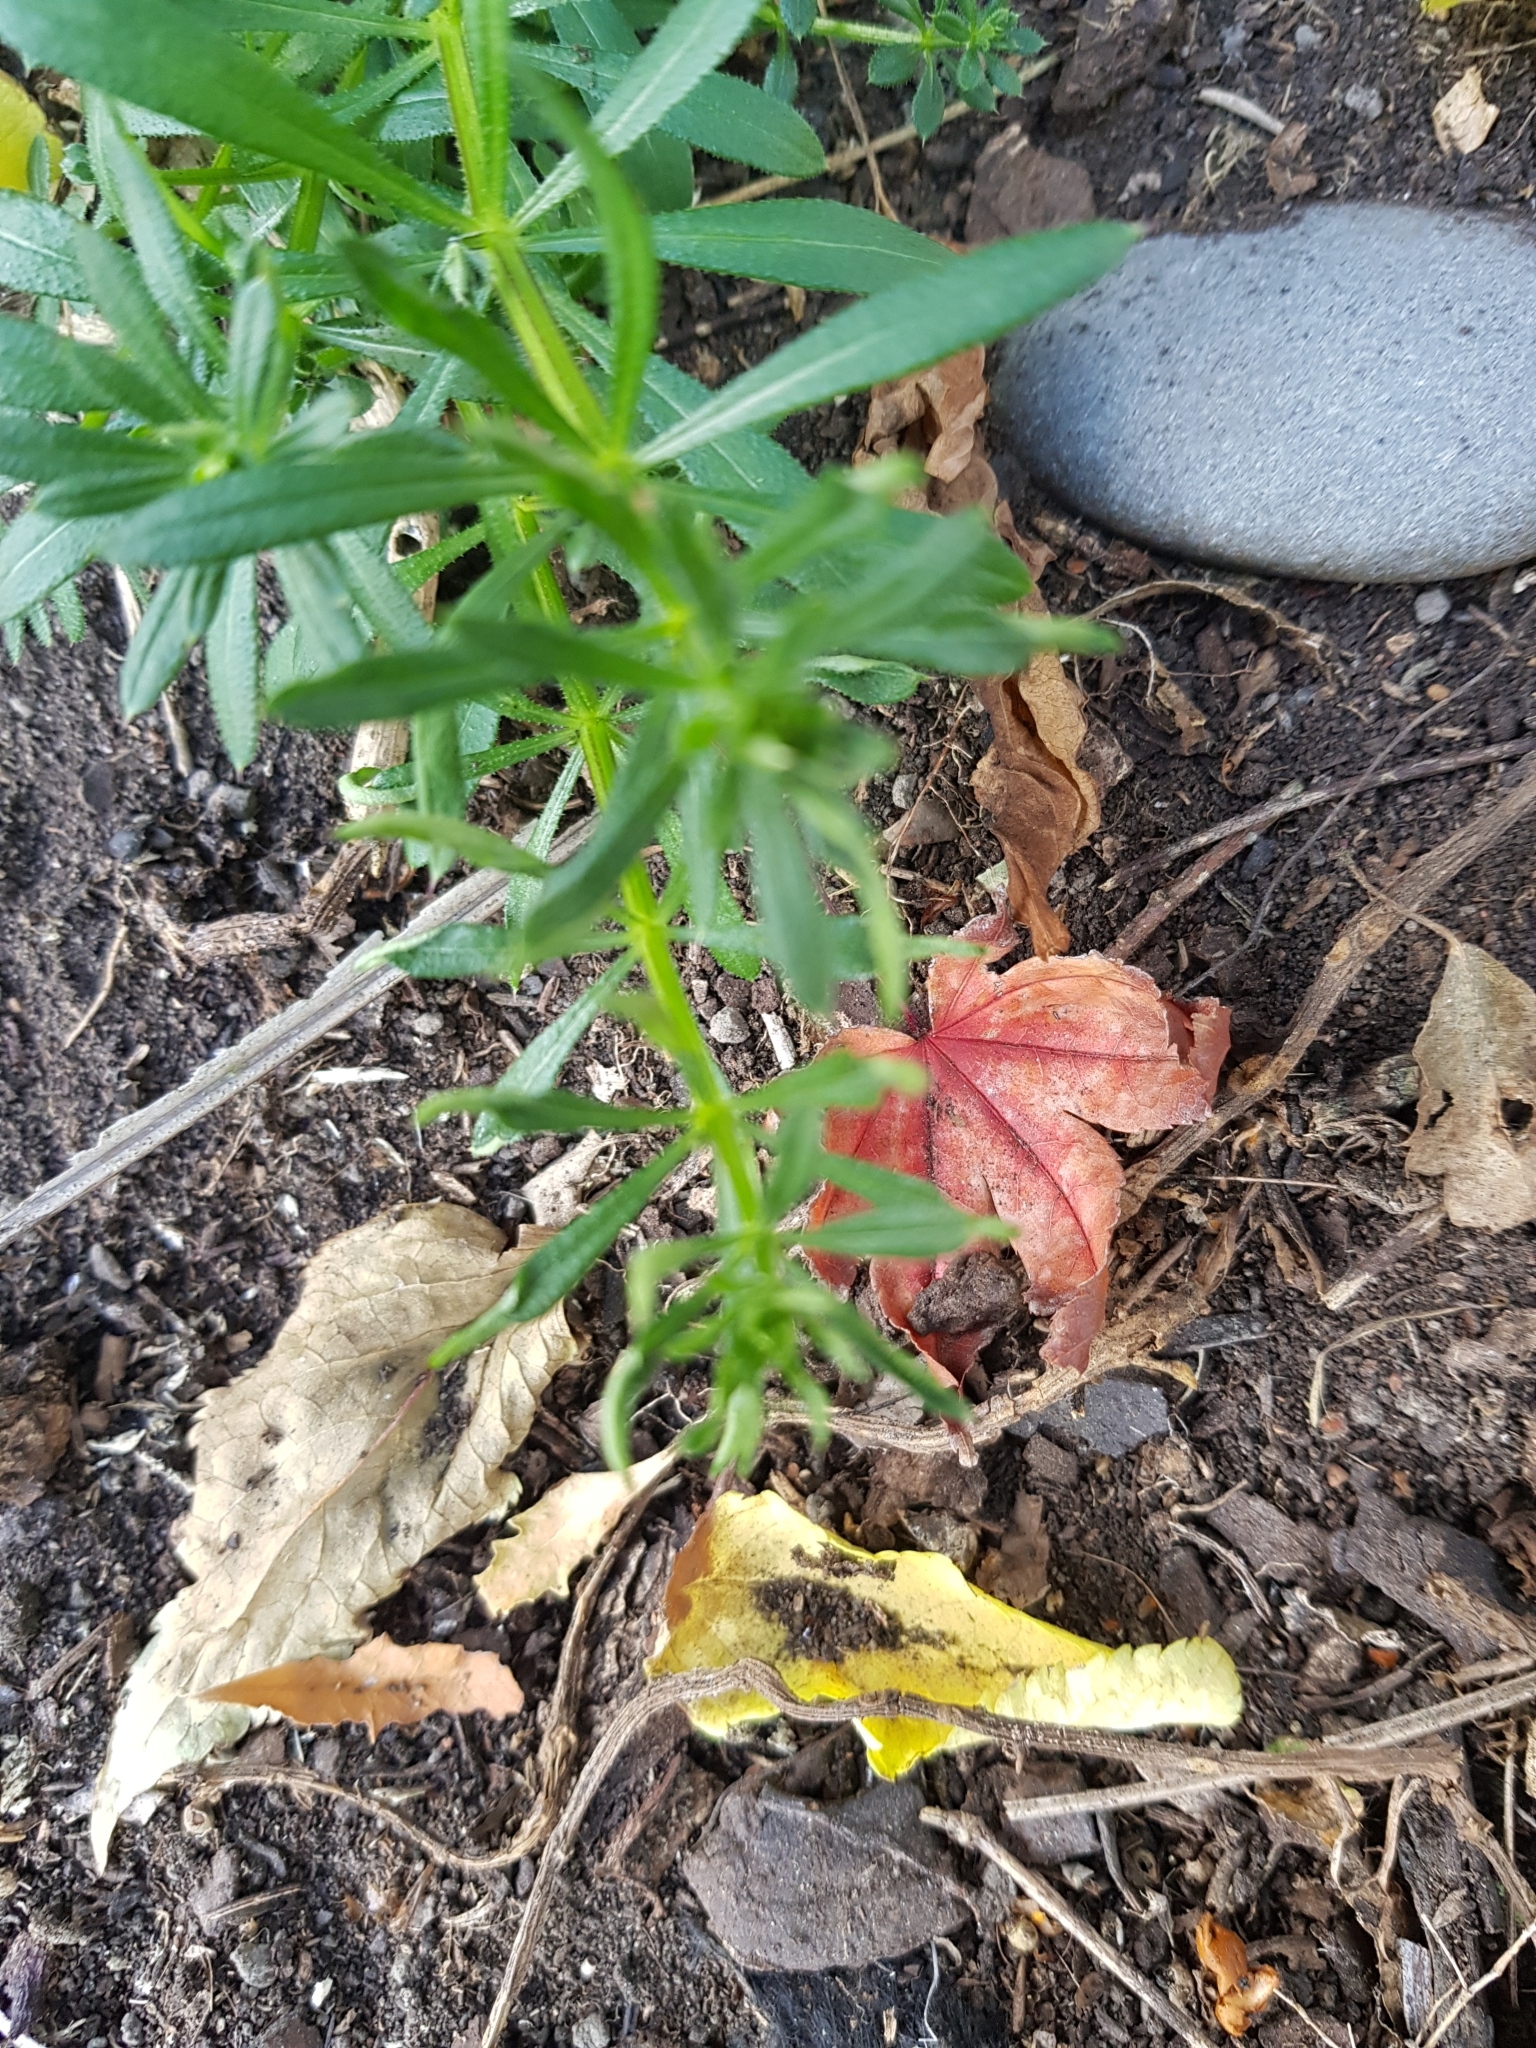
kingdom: Plantae
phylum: Tracheophyta
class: Magnoliopsida
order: Gentianales
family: Rubiaceae
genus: Galium
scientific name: Galium aparine
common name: Cleavers
